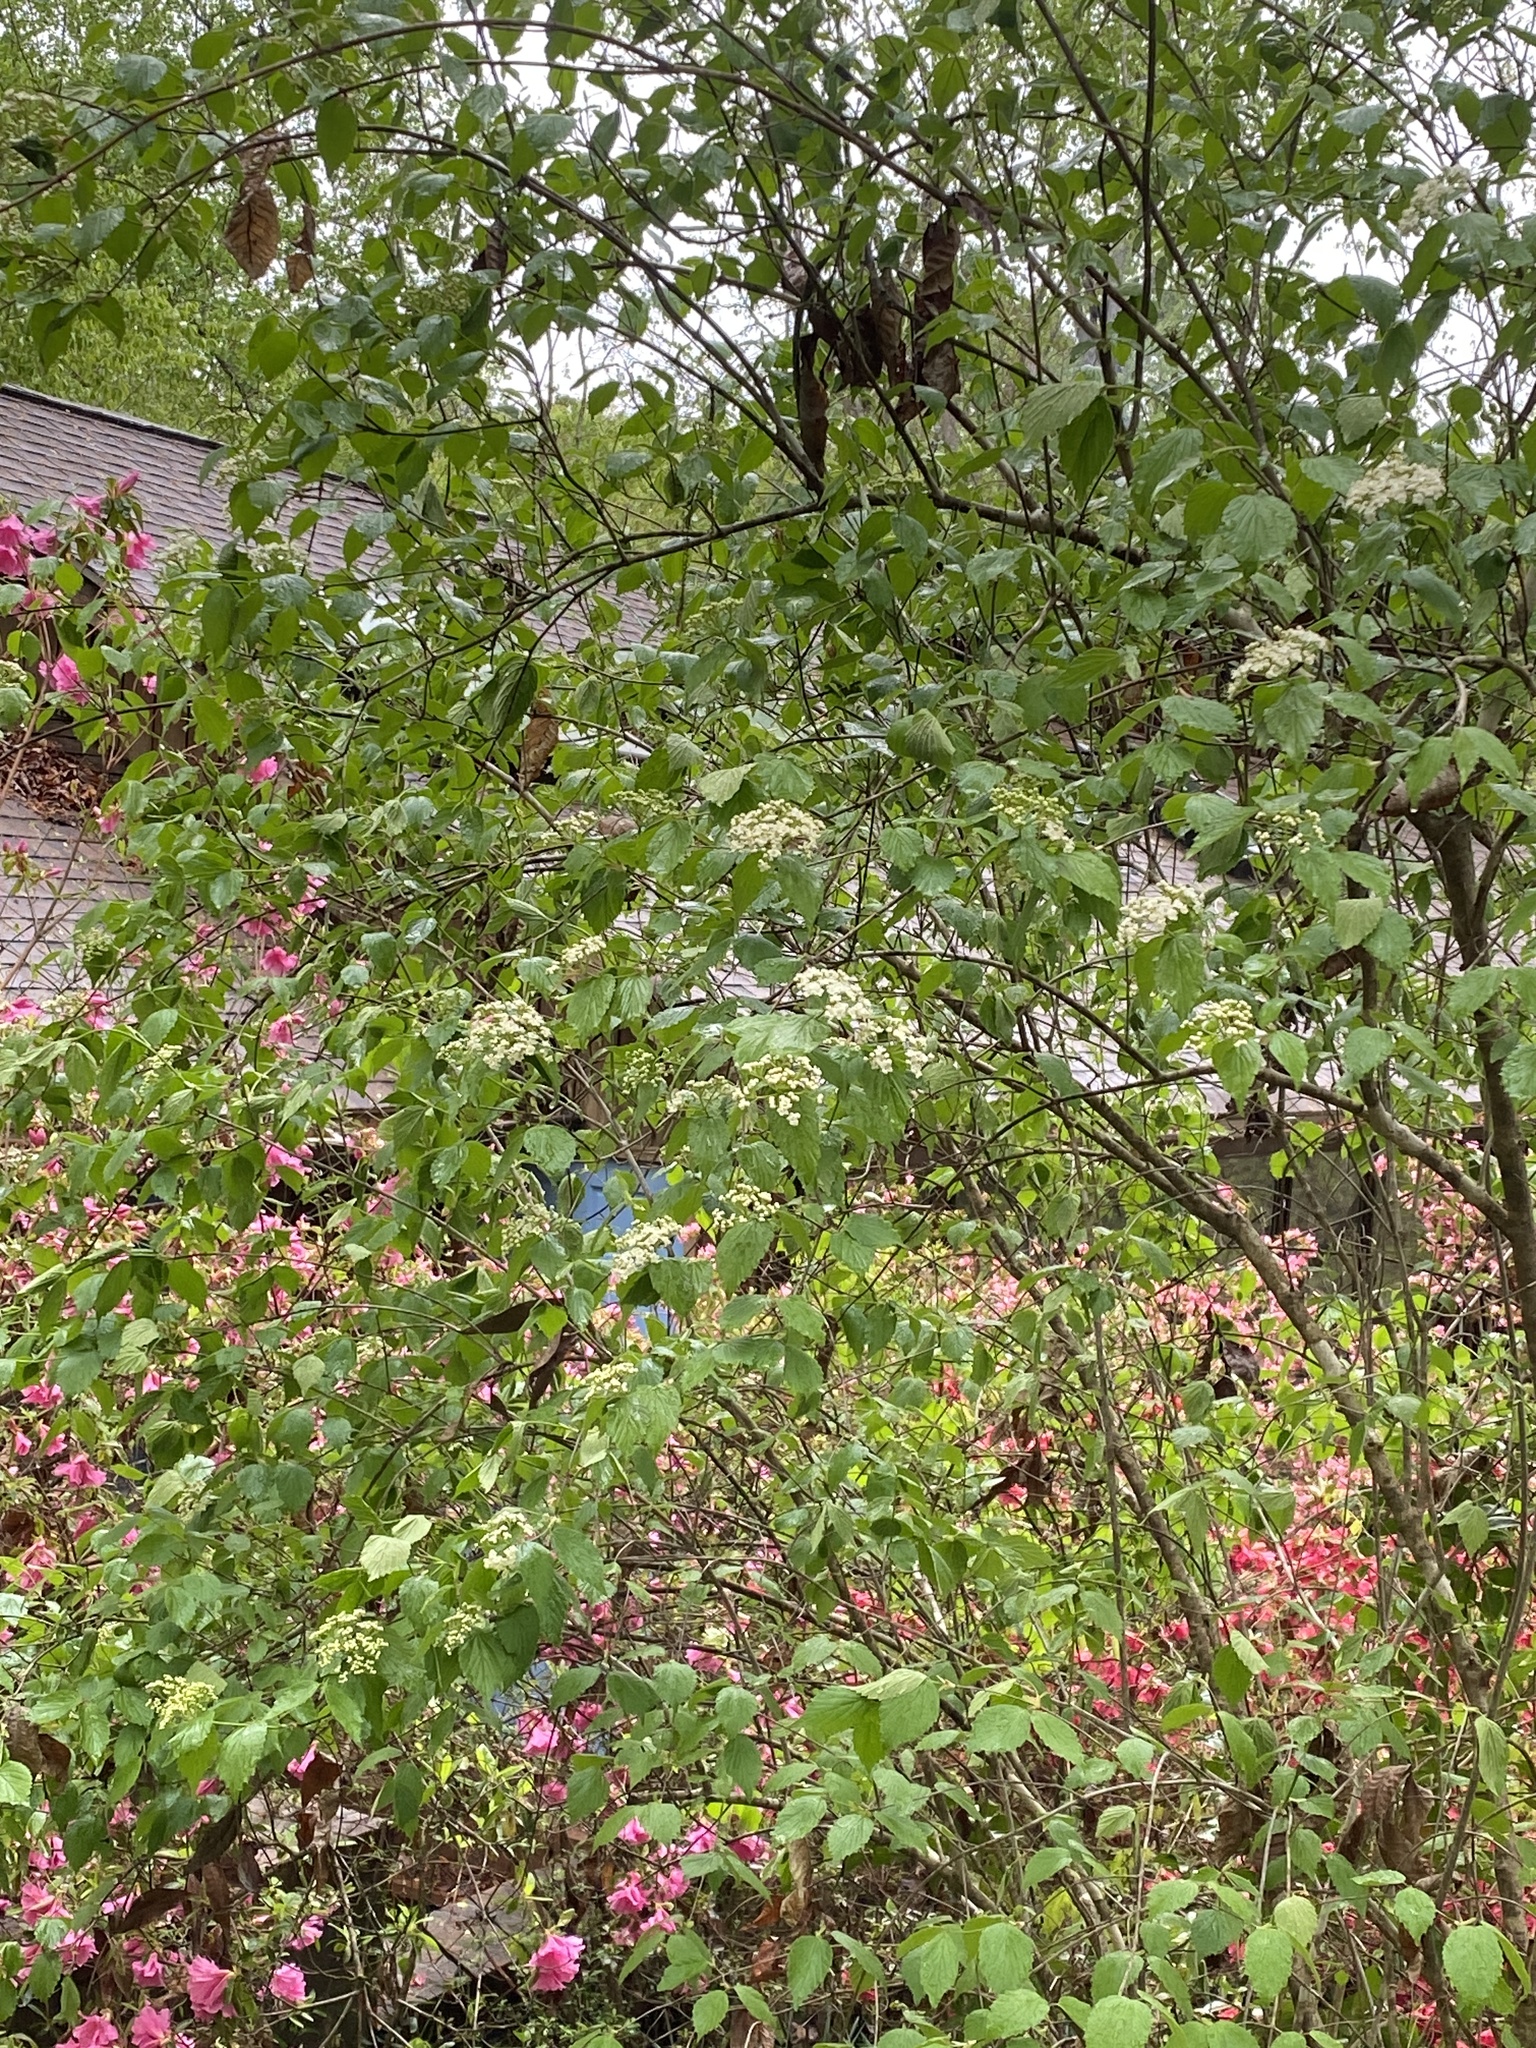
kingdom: Plantae
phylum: Tracheophyta
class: Magnoliopsida
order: Dipsacales
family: Viburnaceae
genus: Viburnum
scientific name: Viburnum rafinesqueanum
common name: Downy arrow-wood
